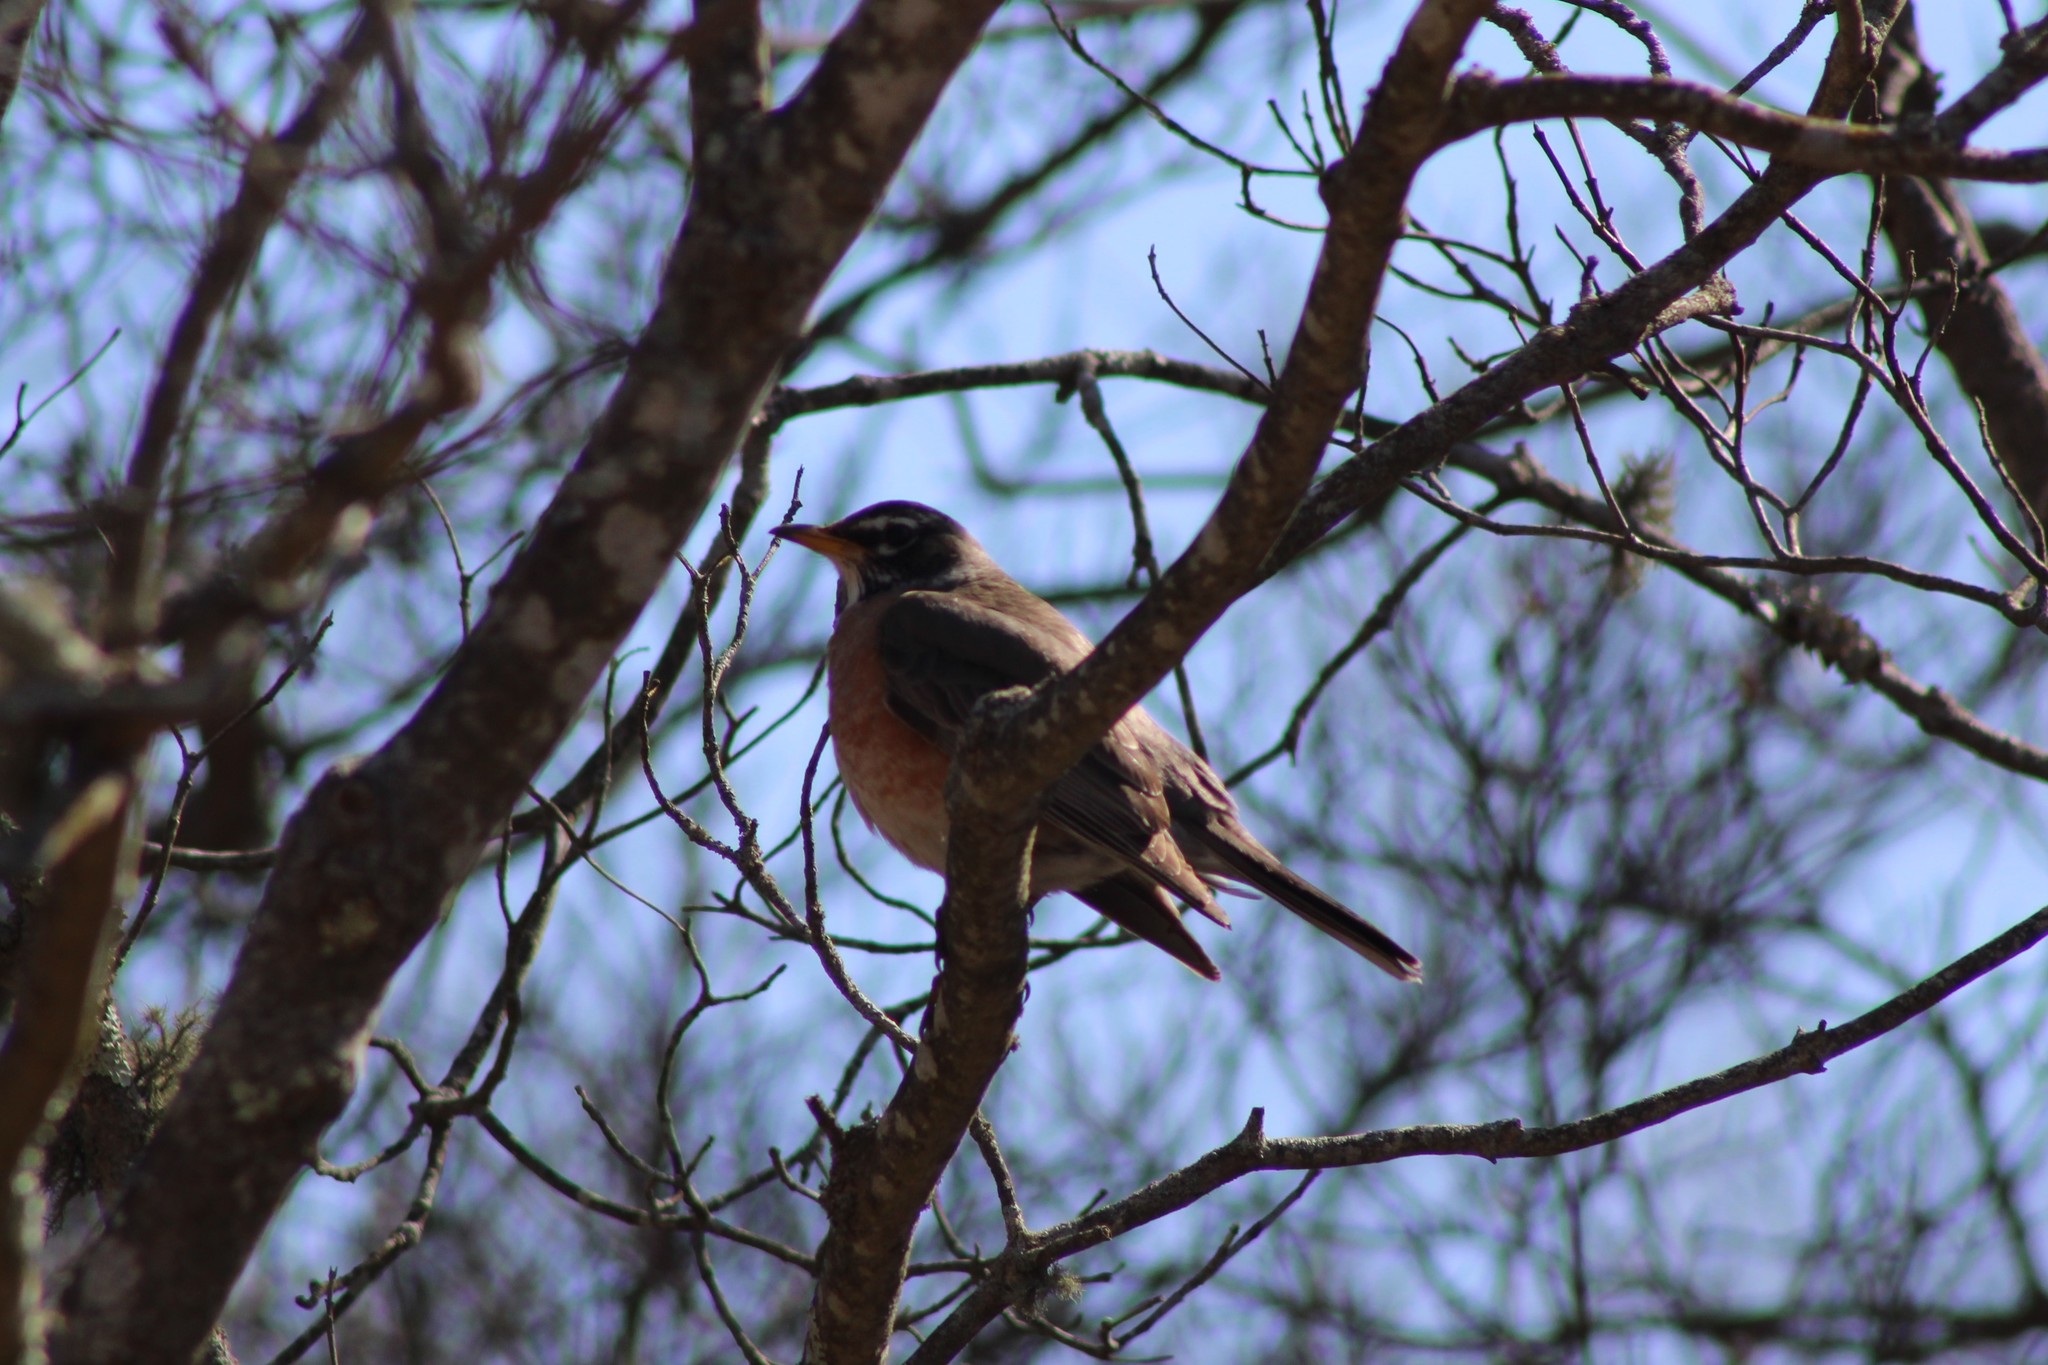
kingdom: Animalia
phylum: Chordata
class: Aves
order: Passeriformes
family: Turdidae
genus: Turdus
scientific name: Turdus migratorius
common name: American robin
